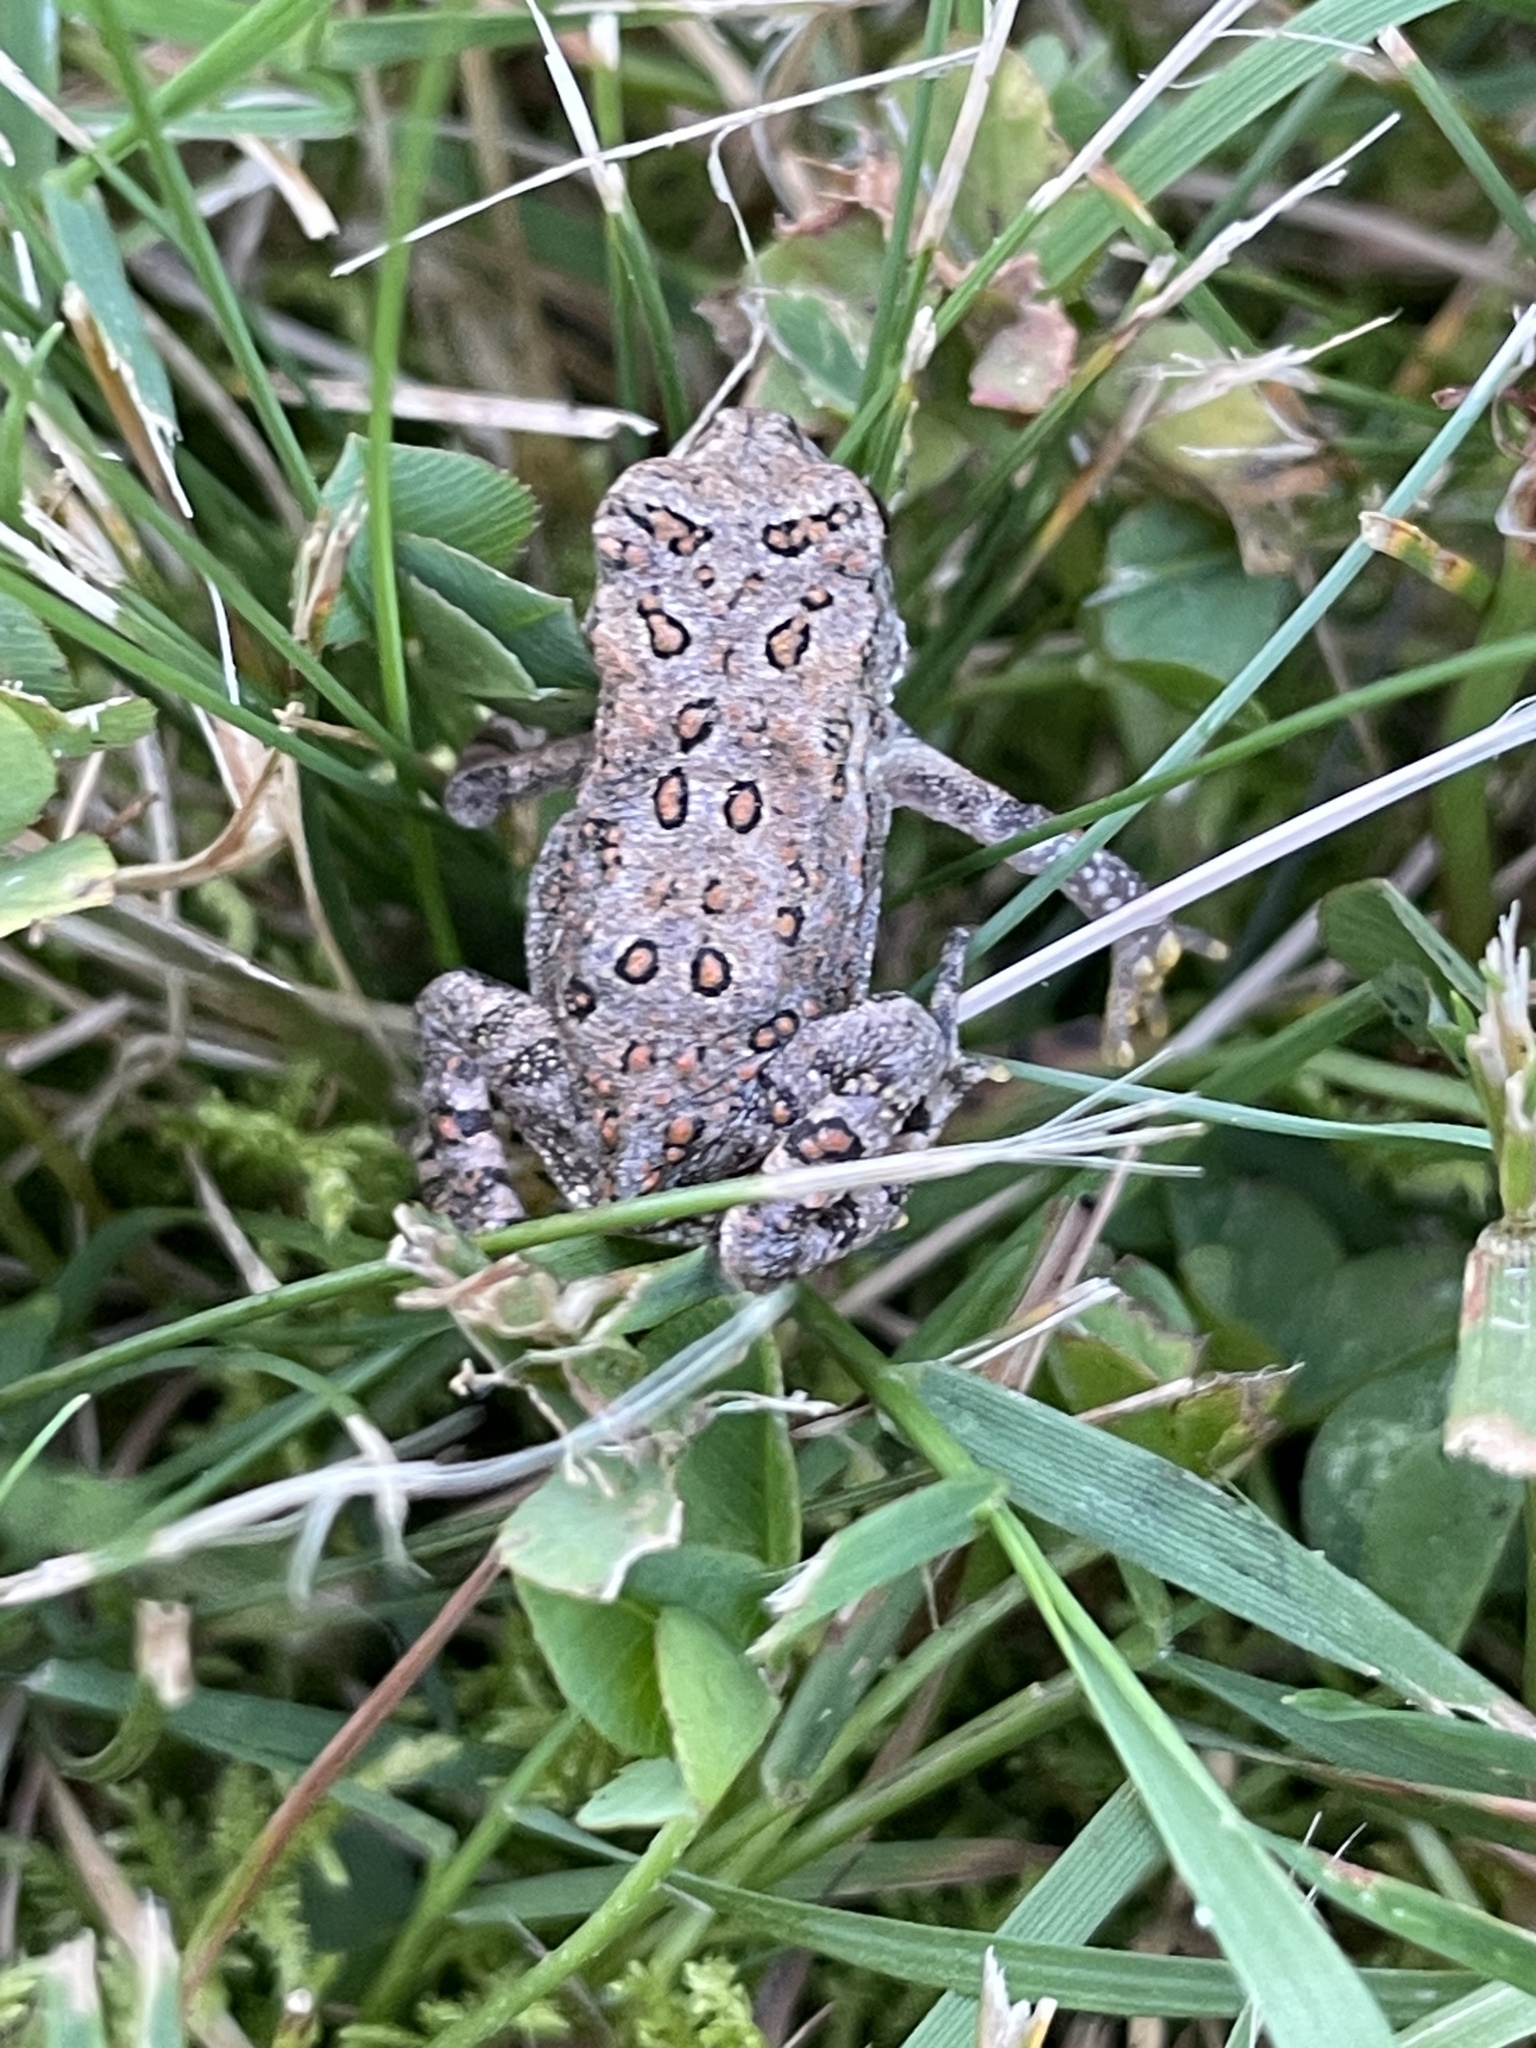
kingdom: Animalia
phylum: Chordata
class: Amphibia
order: Anura
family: Bufonidae
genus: Anaxyrus
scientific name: Anaxyrus americanus
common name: American toad
